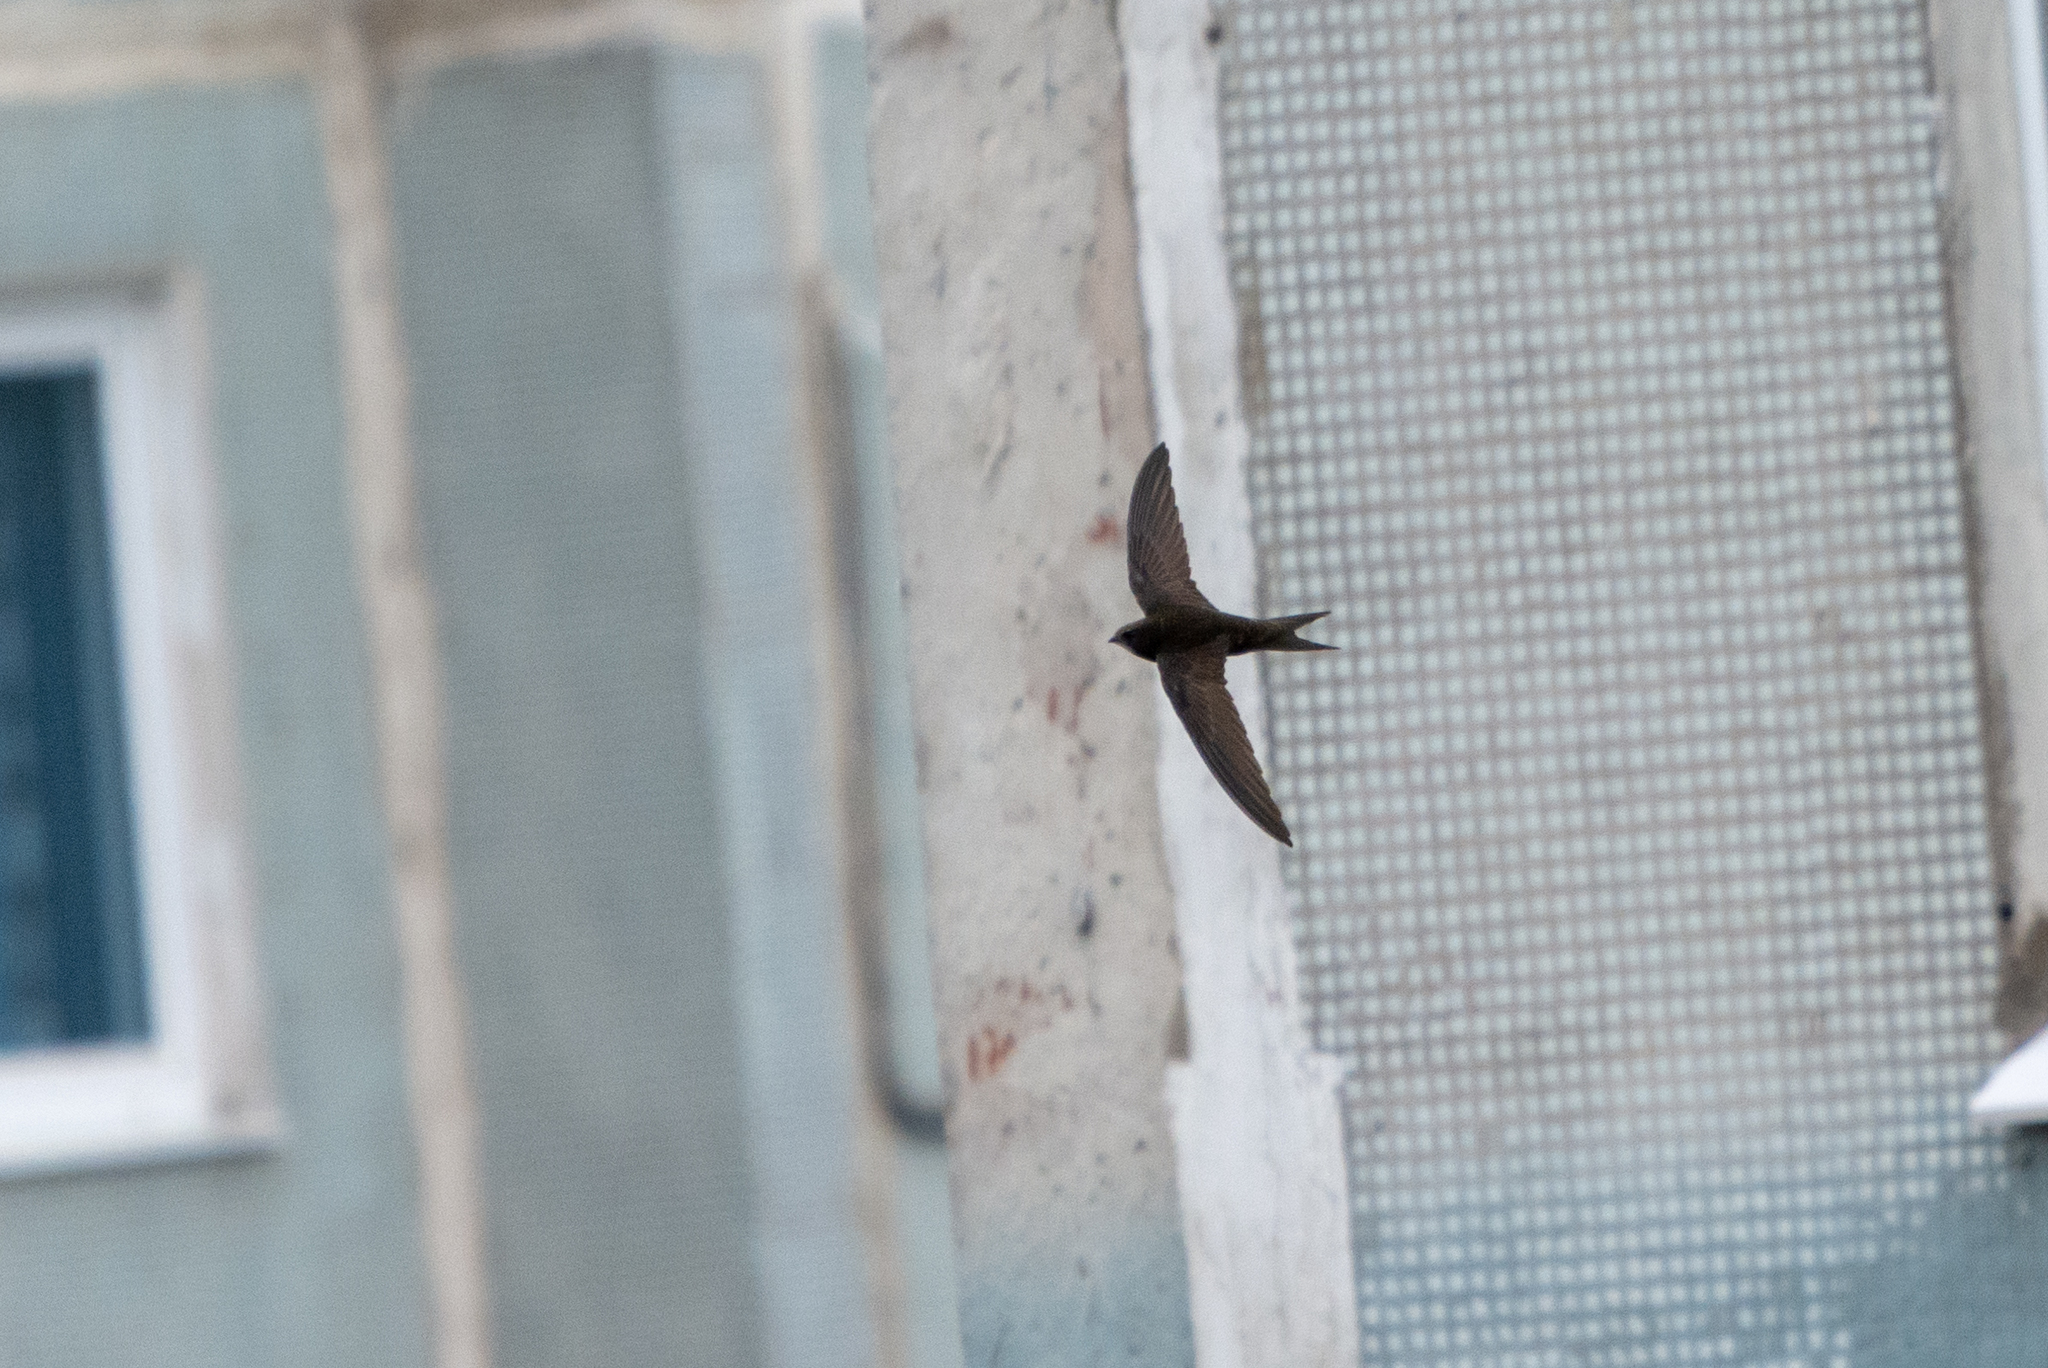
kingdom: Animalia
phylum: Chordata
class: Aves
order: Apodiformes
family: Apodidae
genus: Apus
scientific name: Apus apus
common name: Common swift
